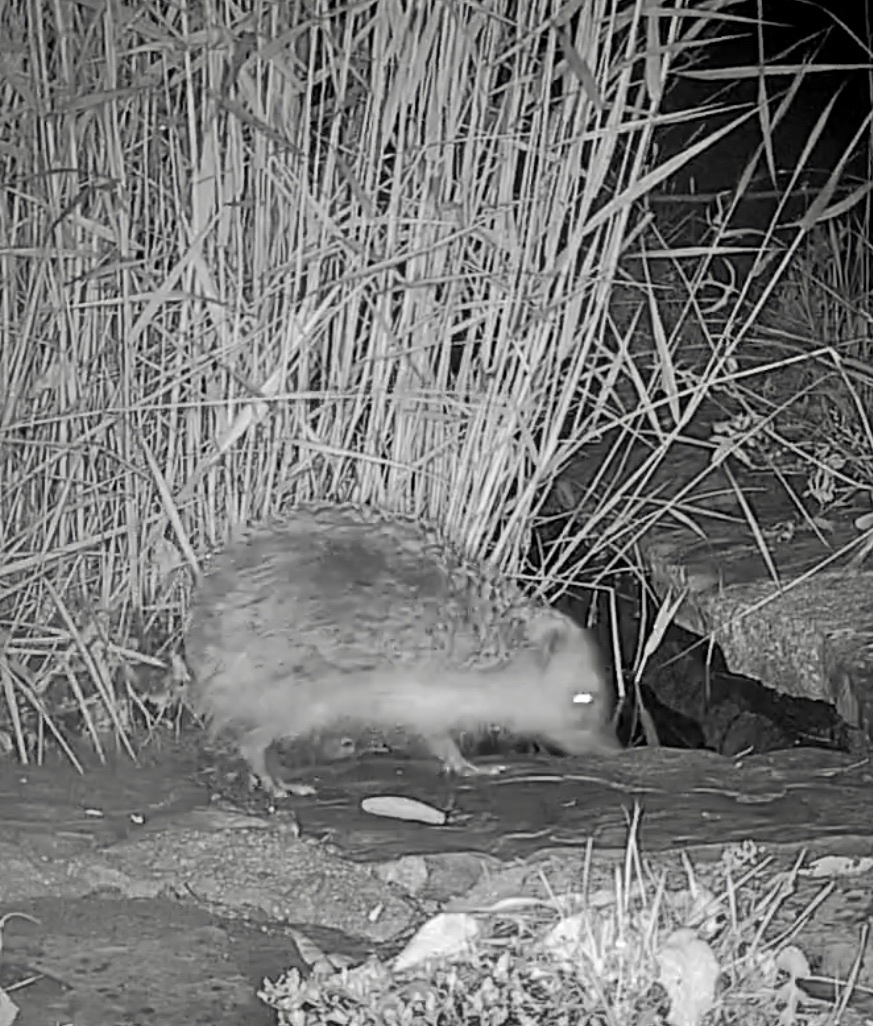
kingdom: Animalia
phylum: Chordata
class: Mammalia
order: Erinaceomorpha
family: Erinaceidae
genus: Erinaceus
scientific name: Erinaceus europaeus
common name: West european hedgehog
